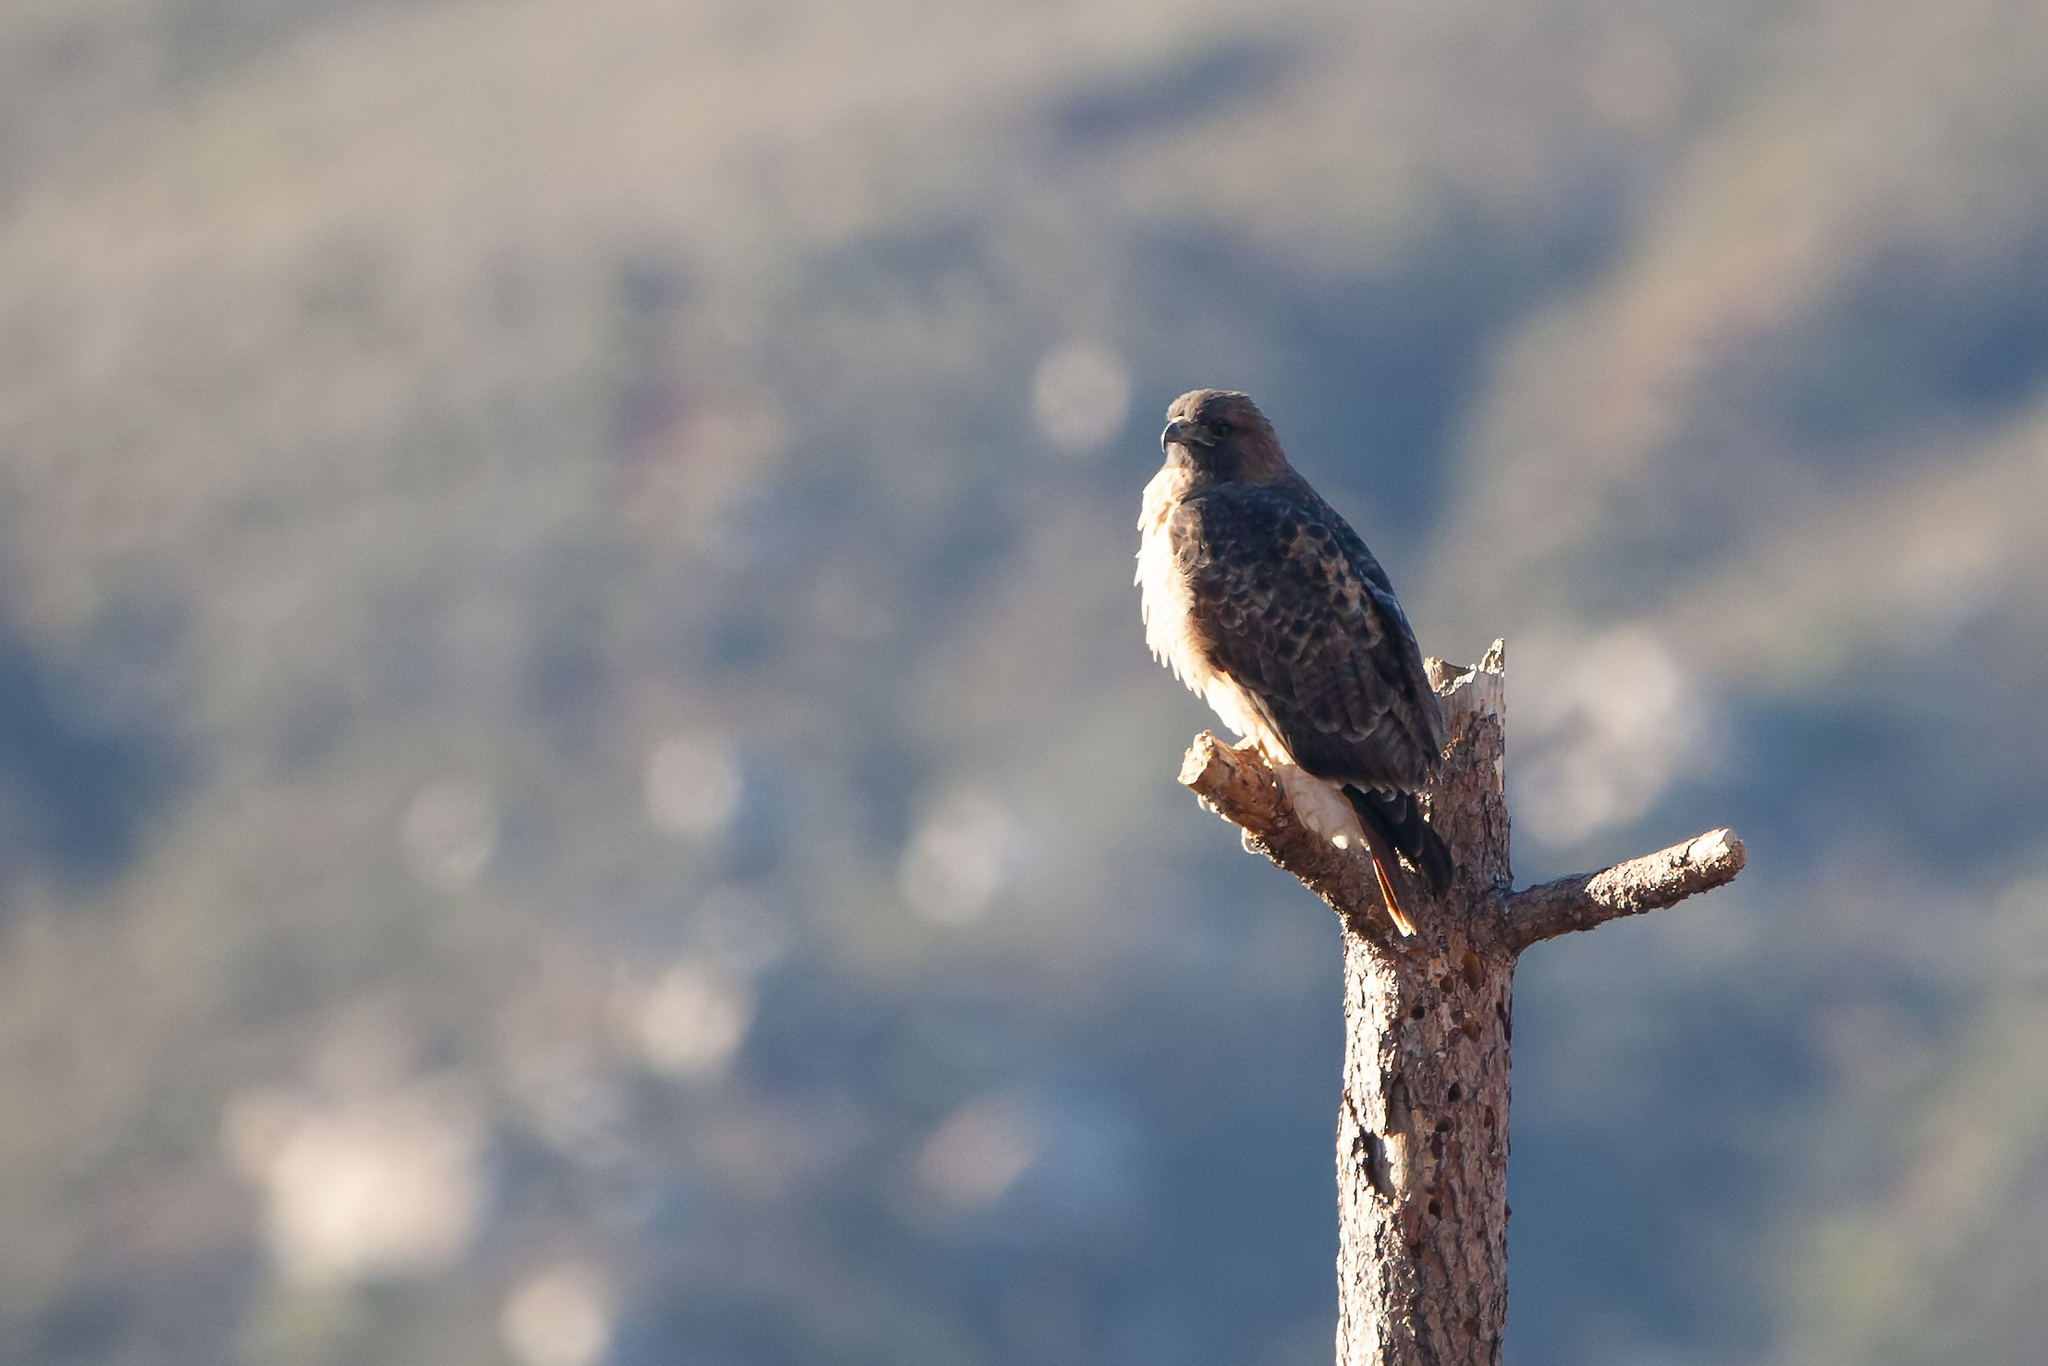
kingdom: Animalia
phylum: Chordata
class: Aves
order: Accipitriformes
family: Accipitridae
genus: Buteo
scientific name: Buteo jamaicensis
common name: Red-tailed hawk
